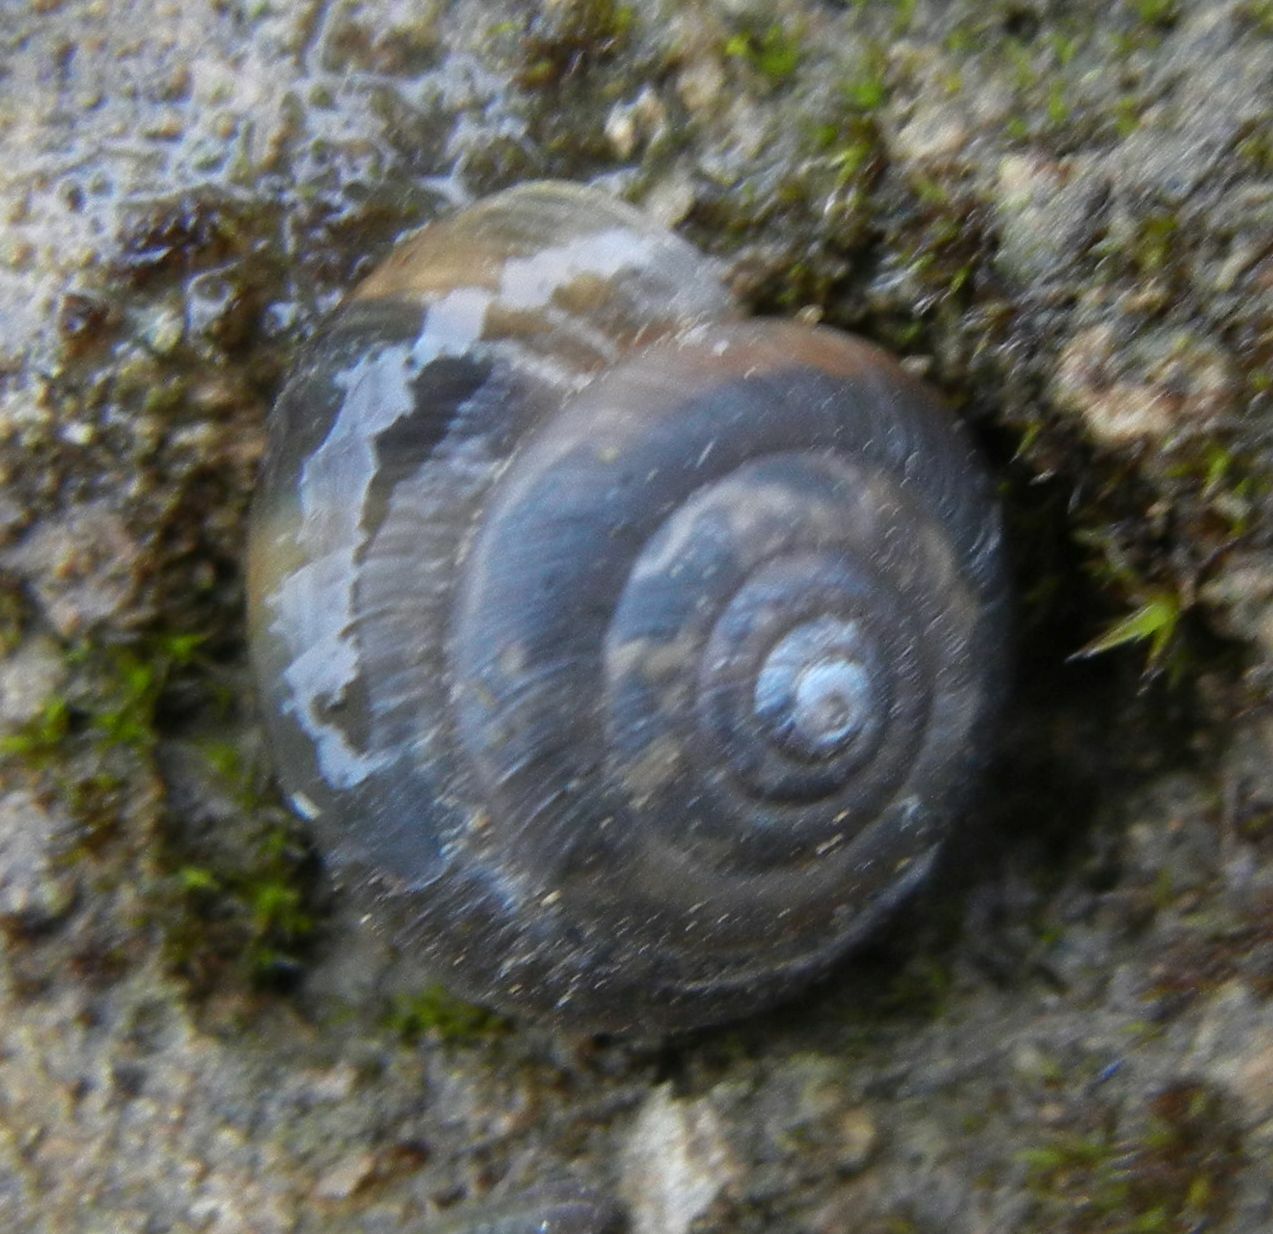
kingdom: Animalia
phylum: Mollusca
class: Gastropoda
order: Stylommatophora
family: Hygromiidae
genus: Trochulus
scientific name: Trochulus striolatus
